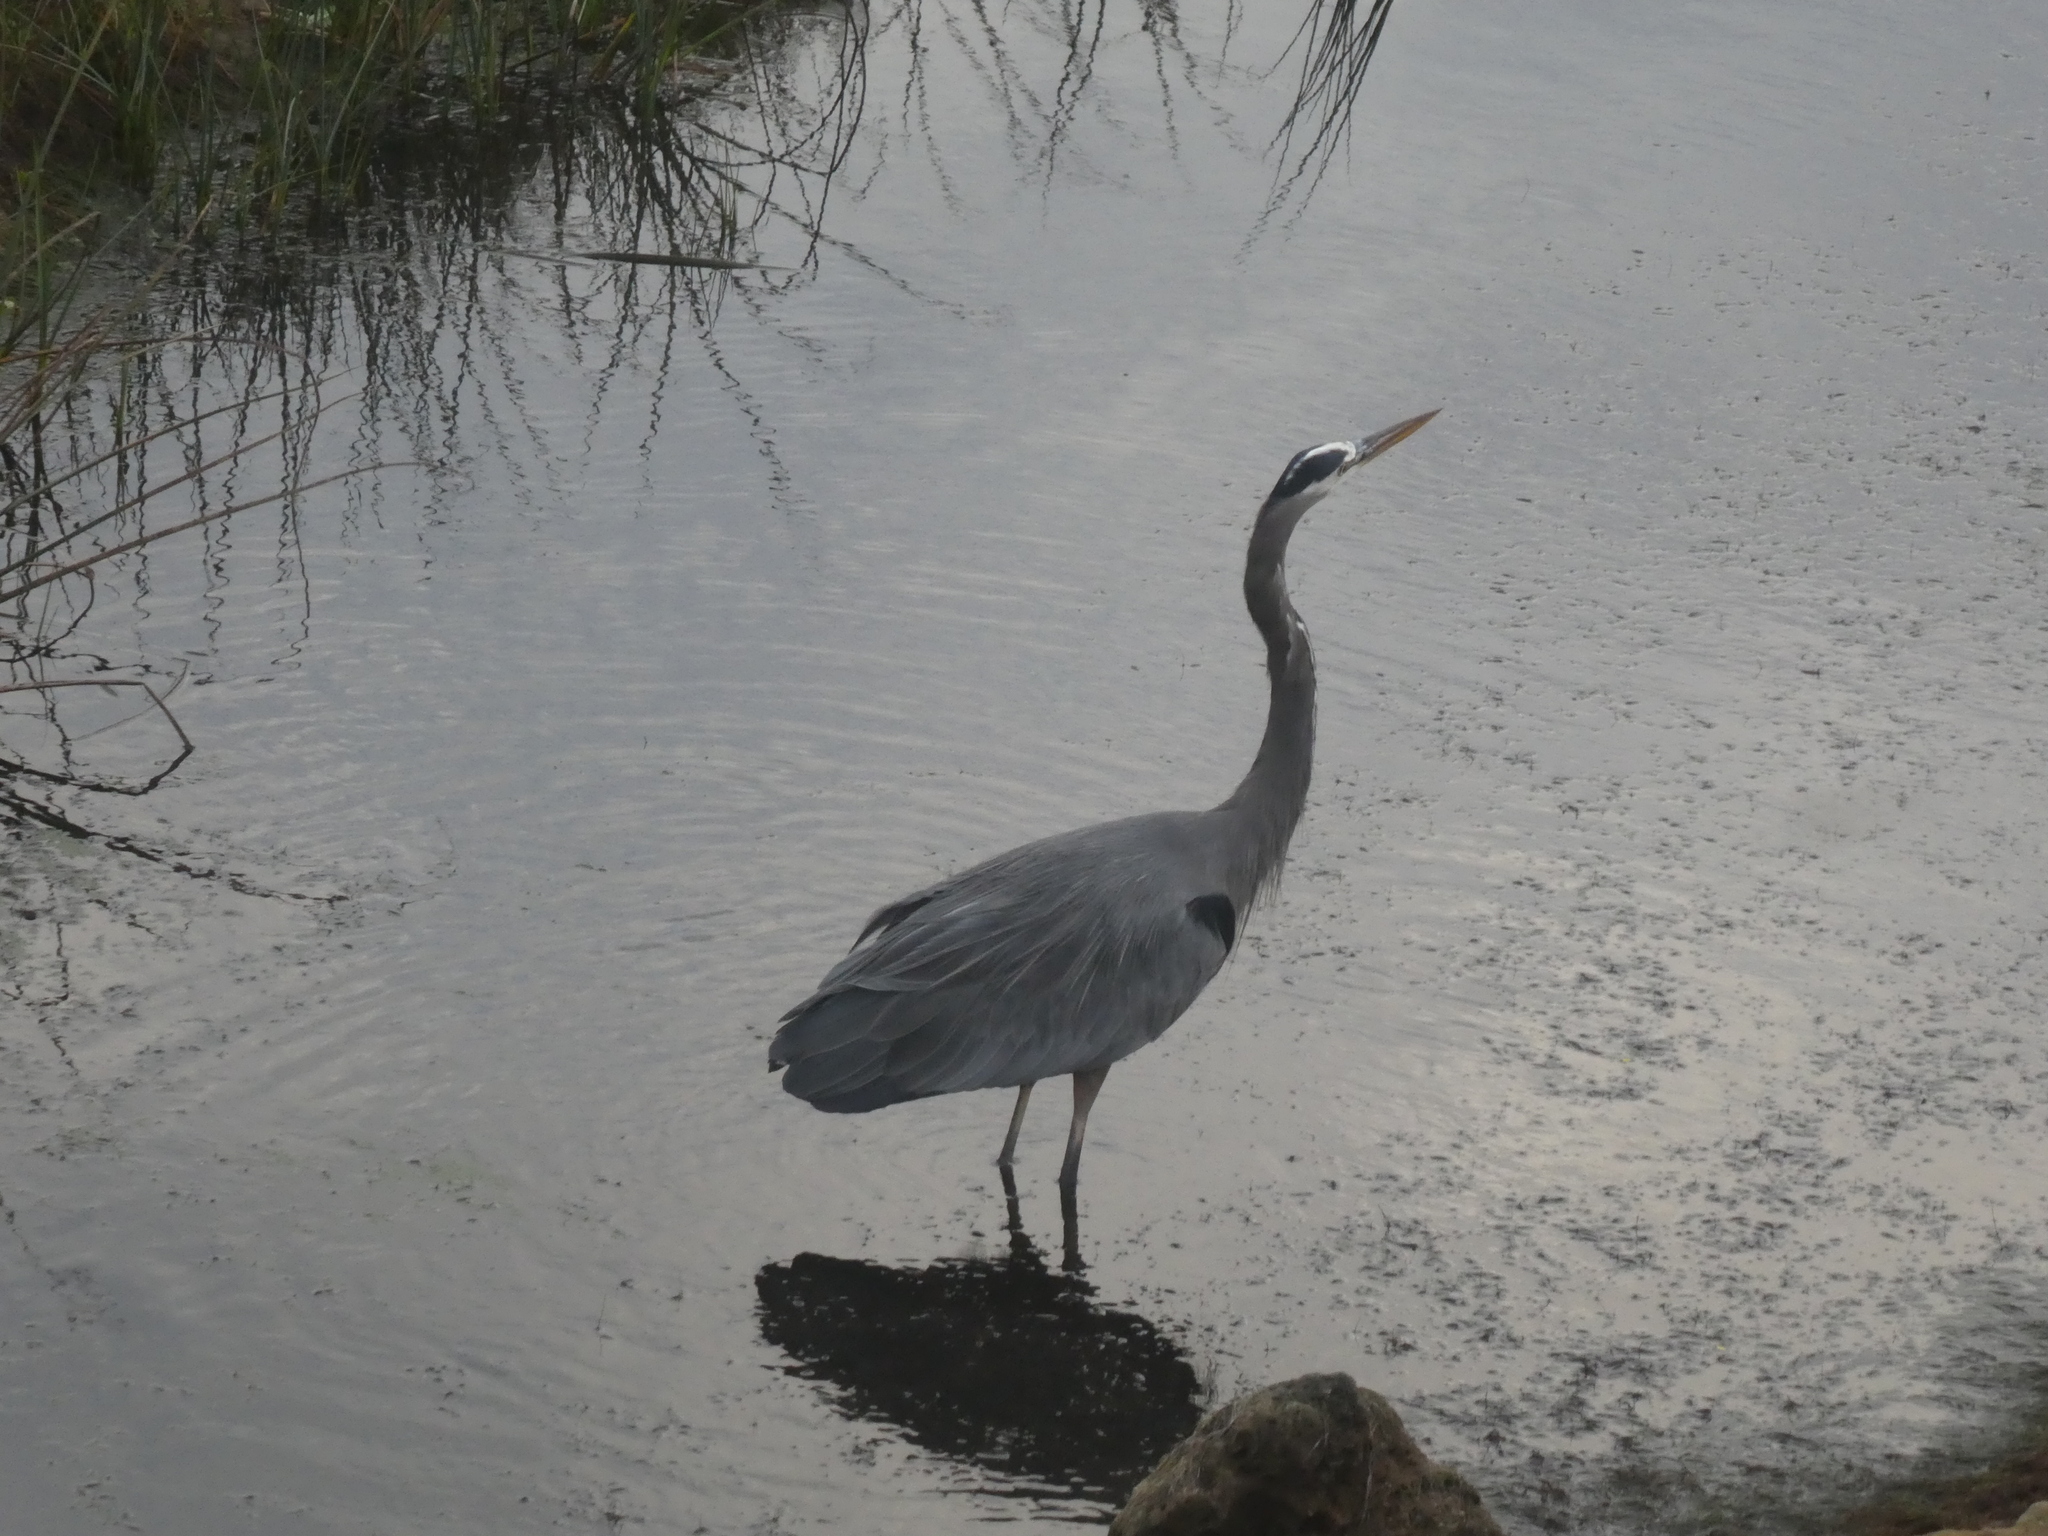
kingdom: Animalia
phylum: Chordata
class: Aves
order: Pelecaniformes
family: Ardeidae
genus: Ardea
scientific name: Ardea herodias
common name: Great blue heron
